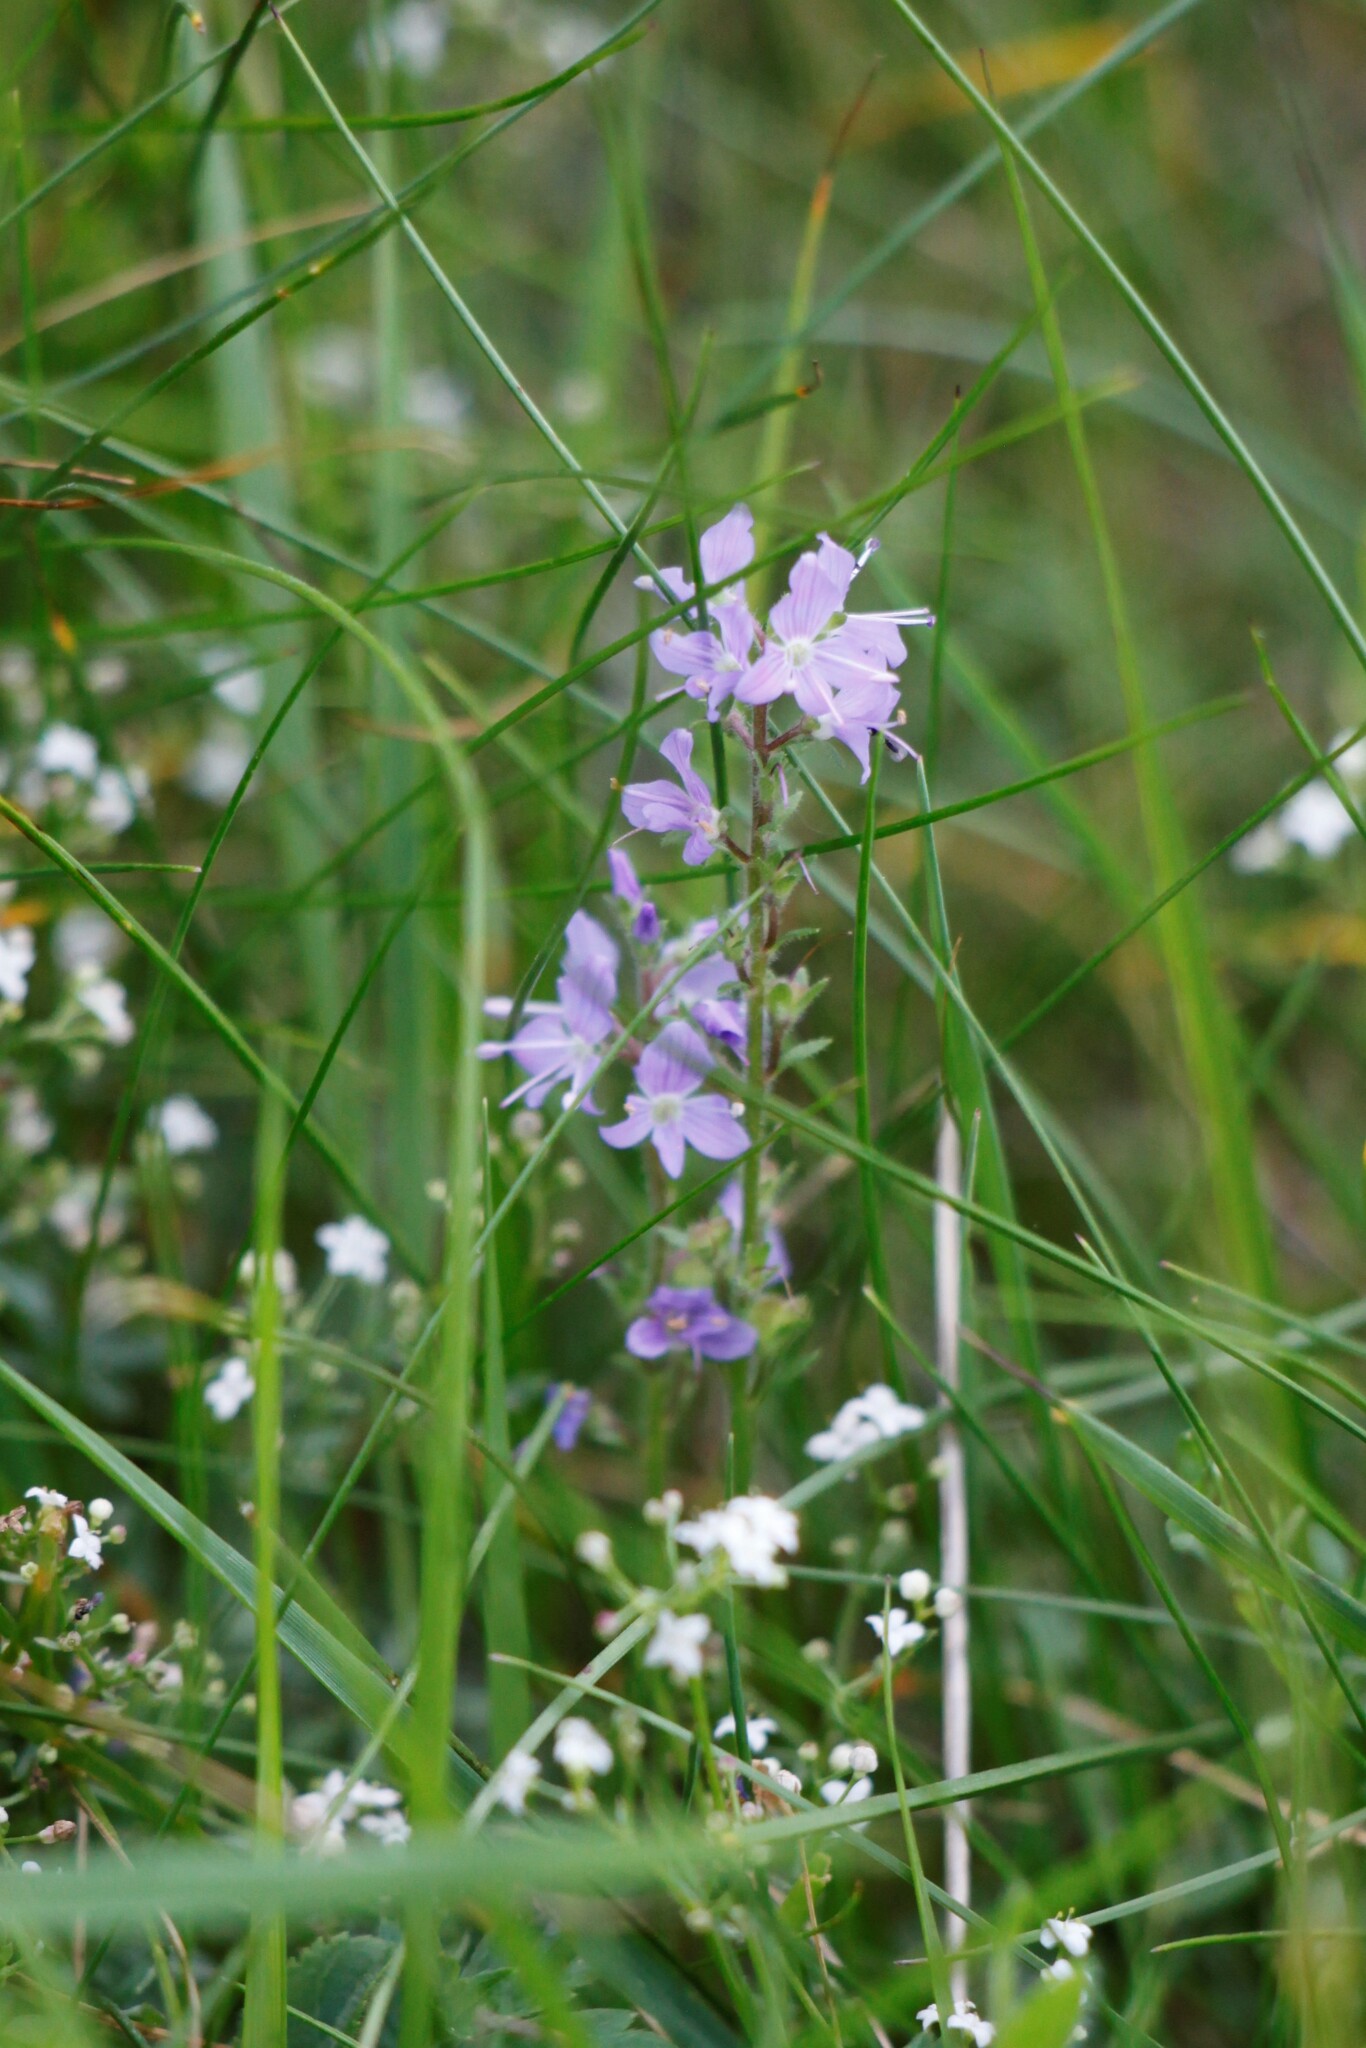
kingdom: Plantae
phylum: Tracheophyta
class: Magnoliopsida
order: Lamiales
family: Plantaginaceae
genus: Veronica
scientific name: Veronica officinalis
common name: Common speedwell
